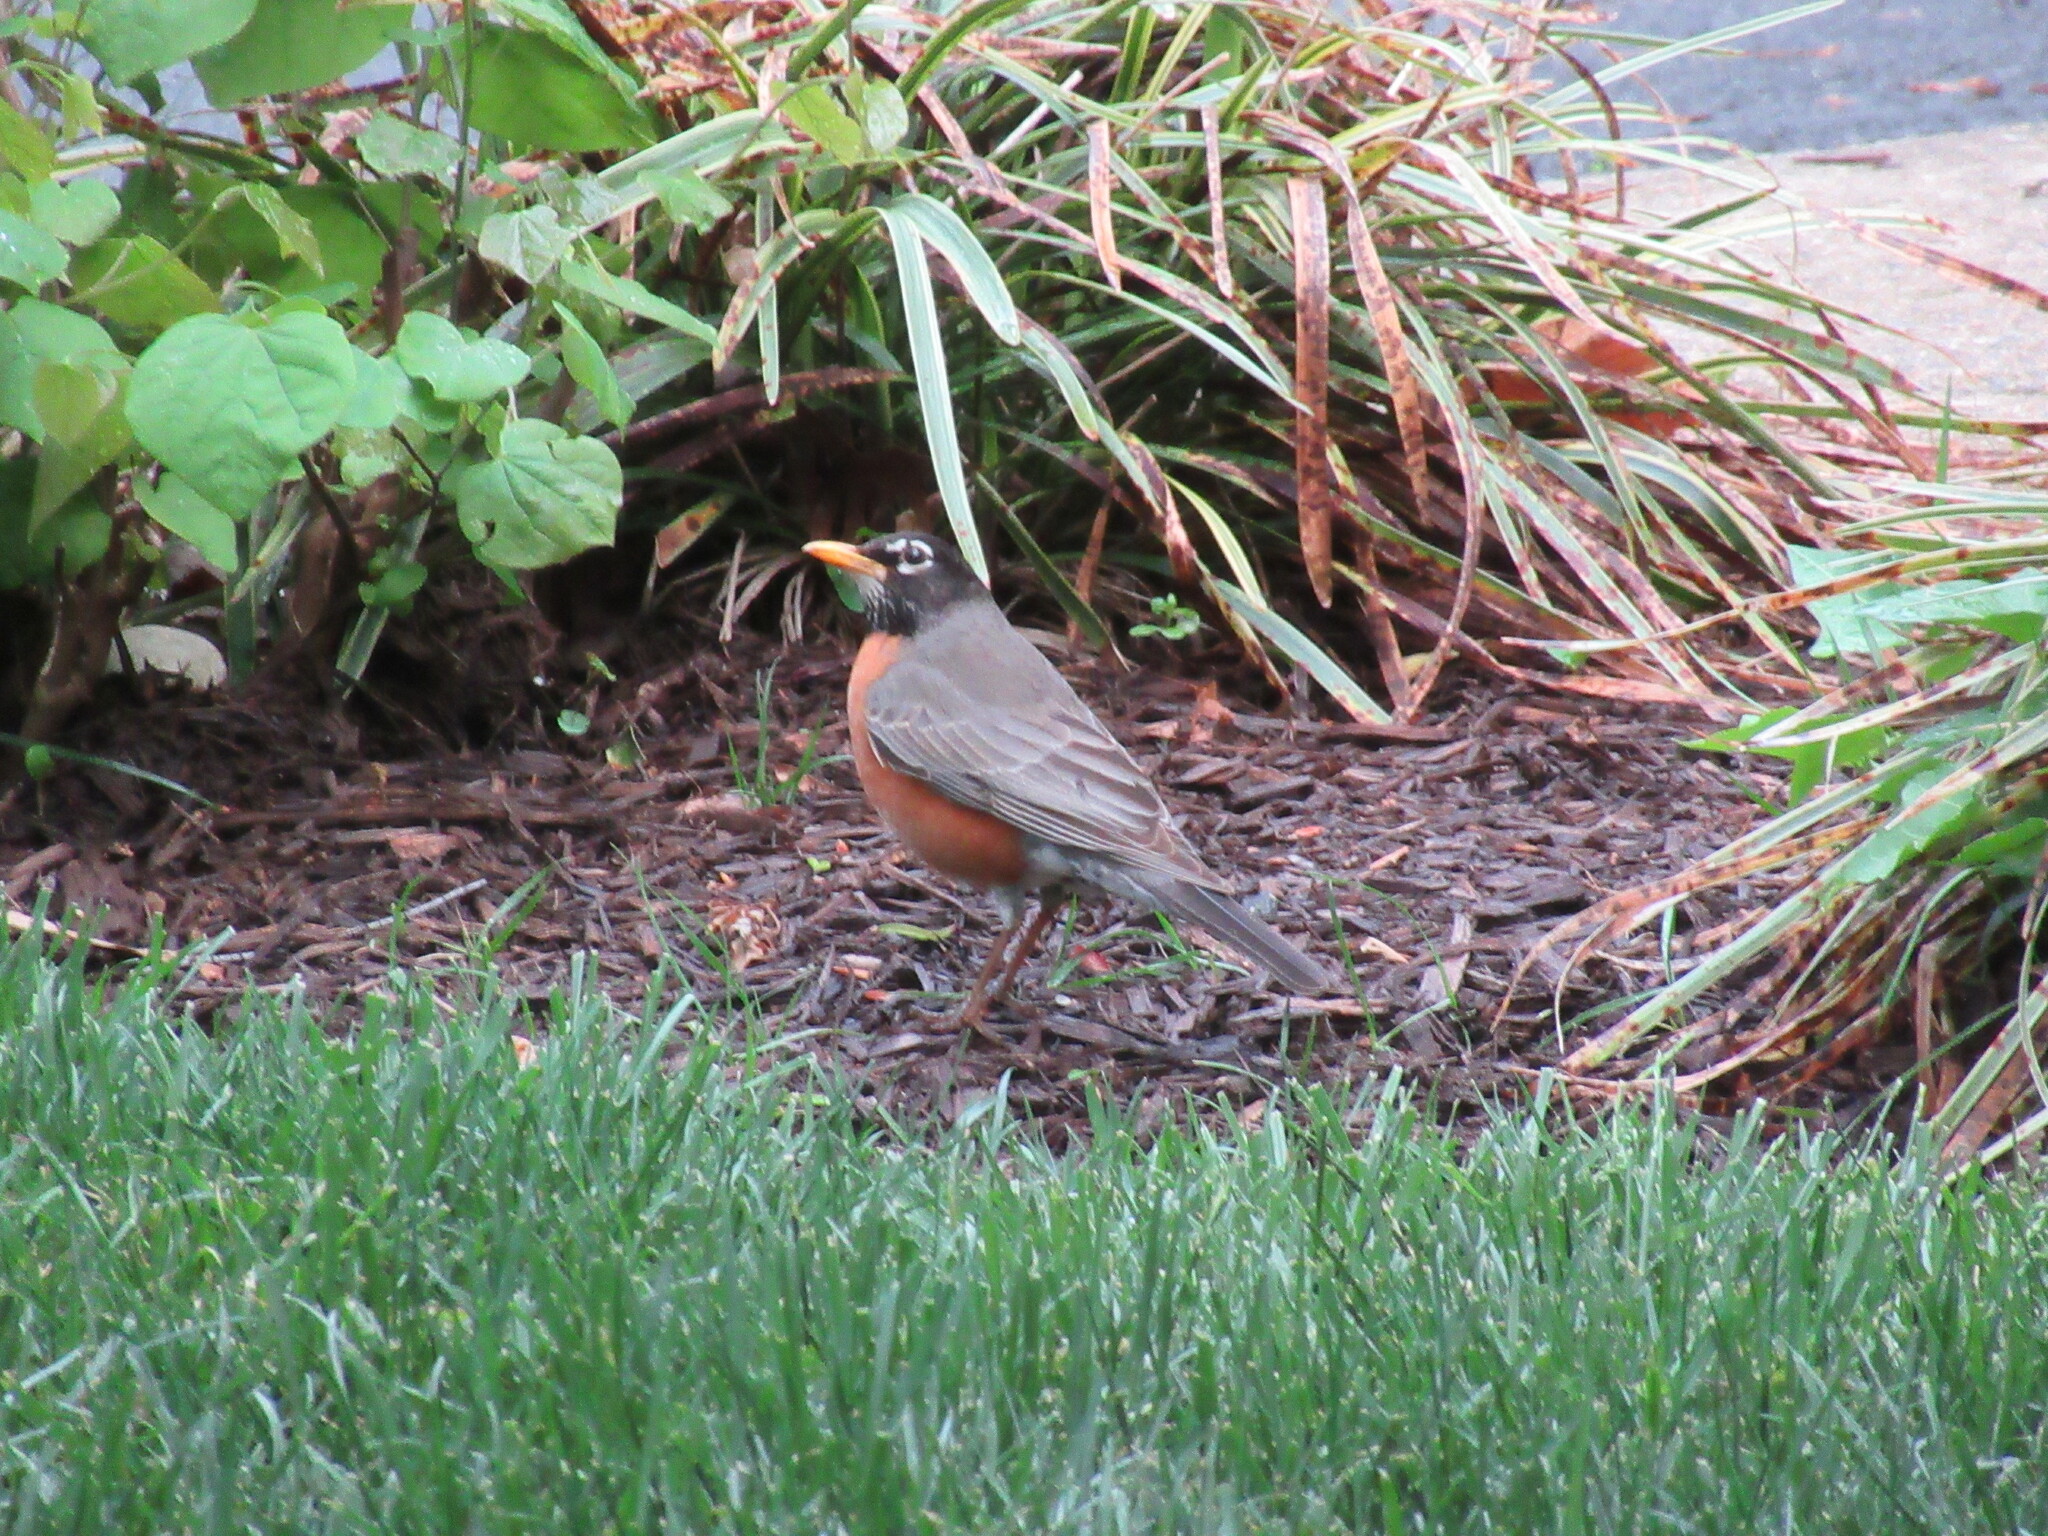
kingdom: Animalia
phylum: Chordata
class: Aves
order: Passeriformes
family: Turdidae
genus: Turdus
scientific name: Turdus migratorius
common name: American robin
